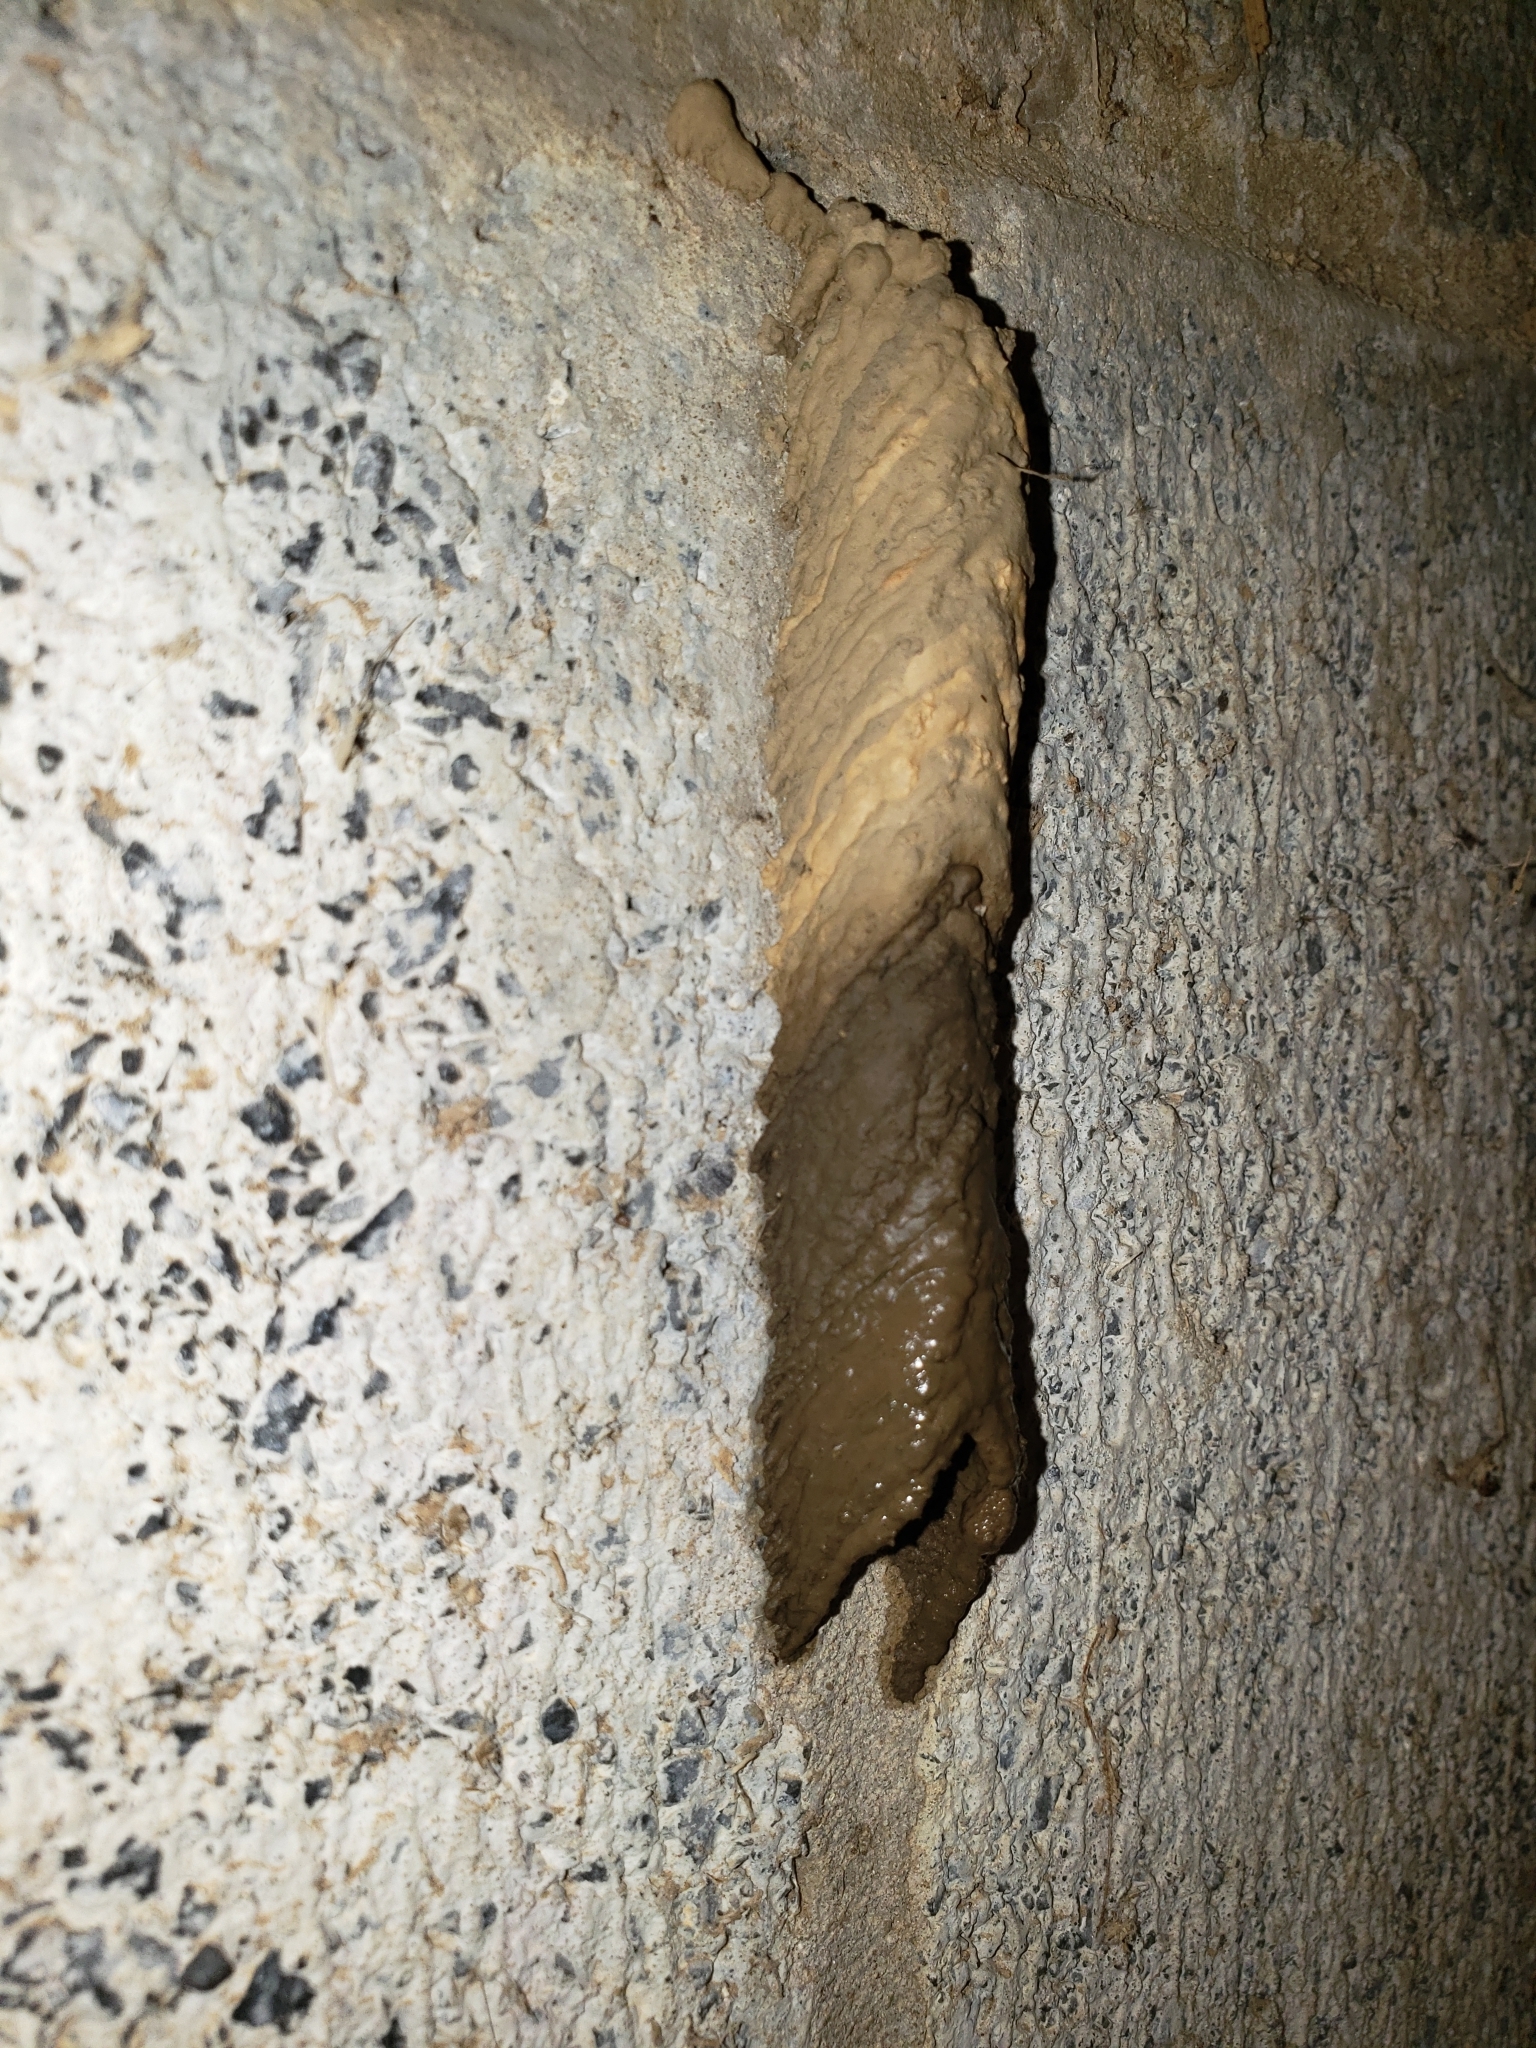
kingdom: Animalia
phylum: Arthropoda
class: Insecta
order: Hymenoptera
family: Crabronidae
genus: Trypoxylon
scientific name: Trypoxylon politum
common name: Organ-pipe mud-dauber wasp
